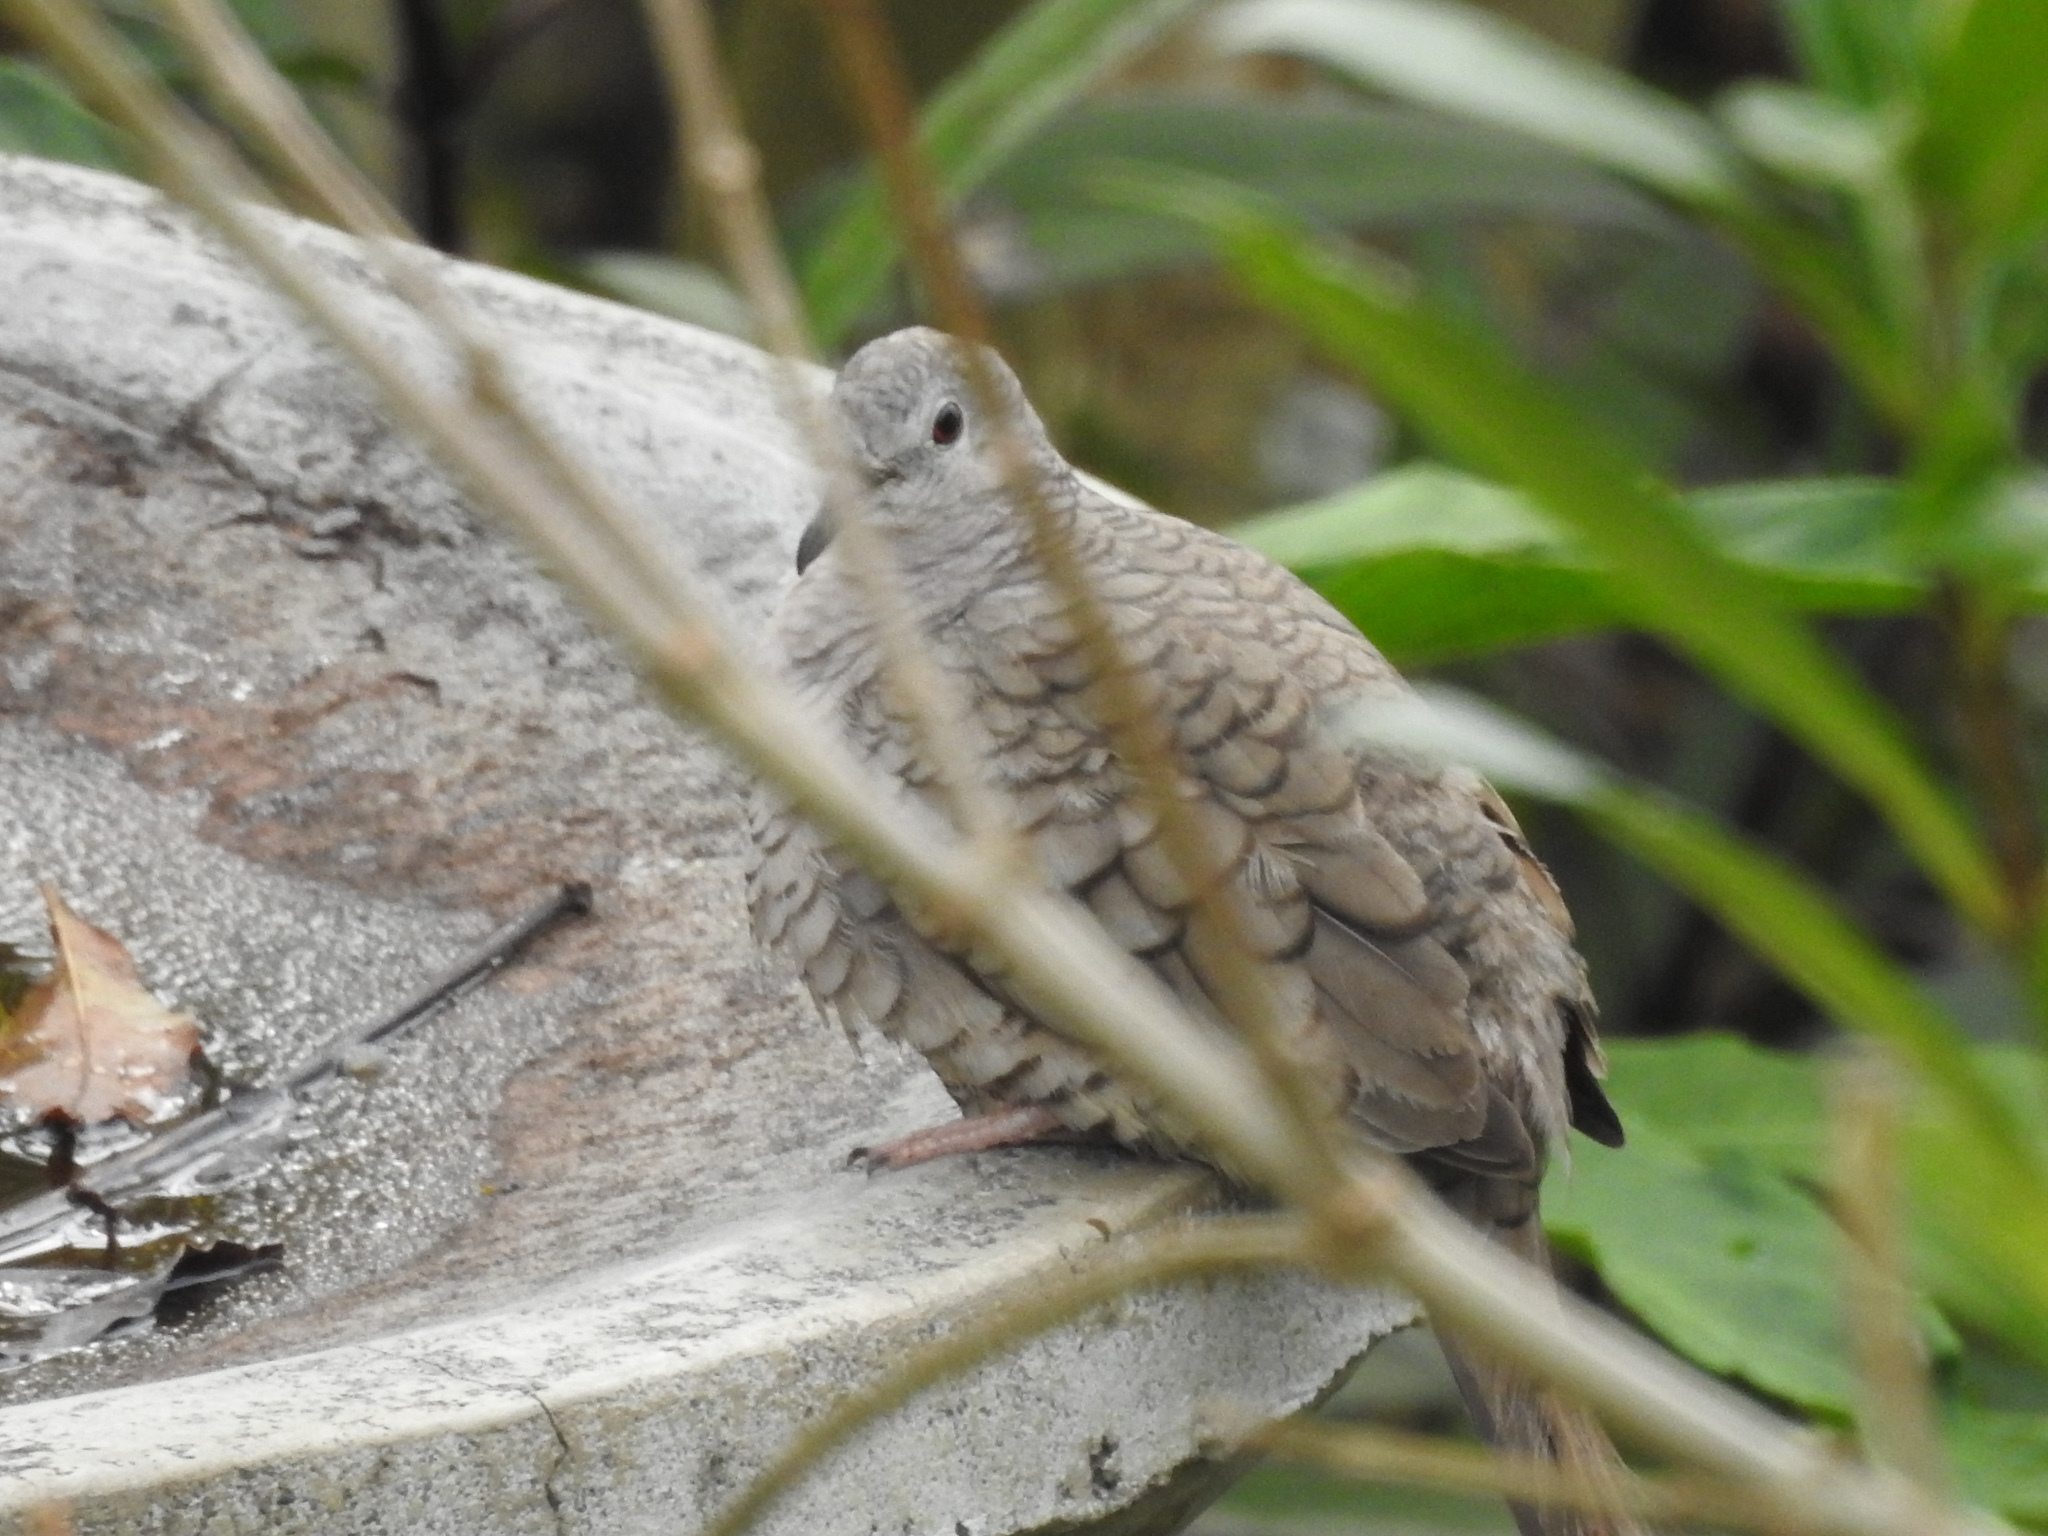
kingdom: Animalia
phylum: Chordata
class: Aves
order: Columbiformes
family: Columbidae
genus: Columbina
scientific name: Columbina inca
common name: Inca dove
